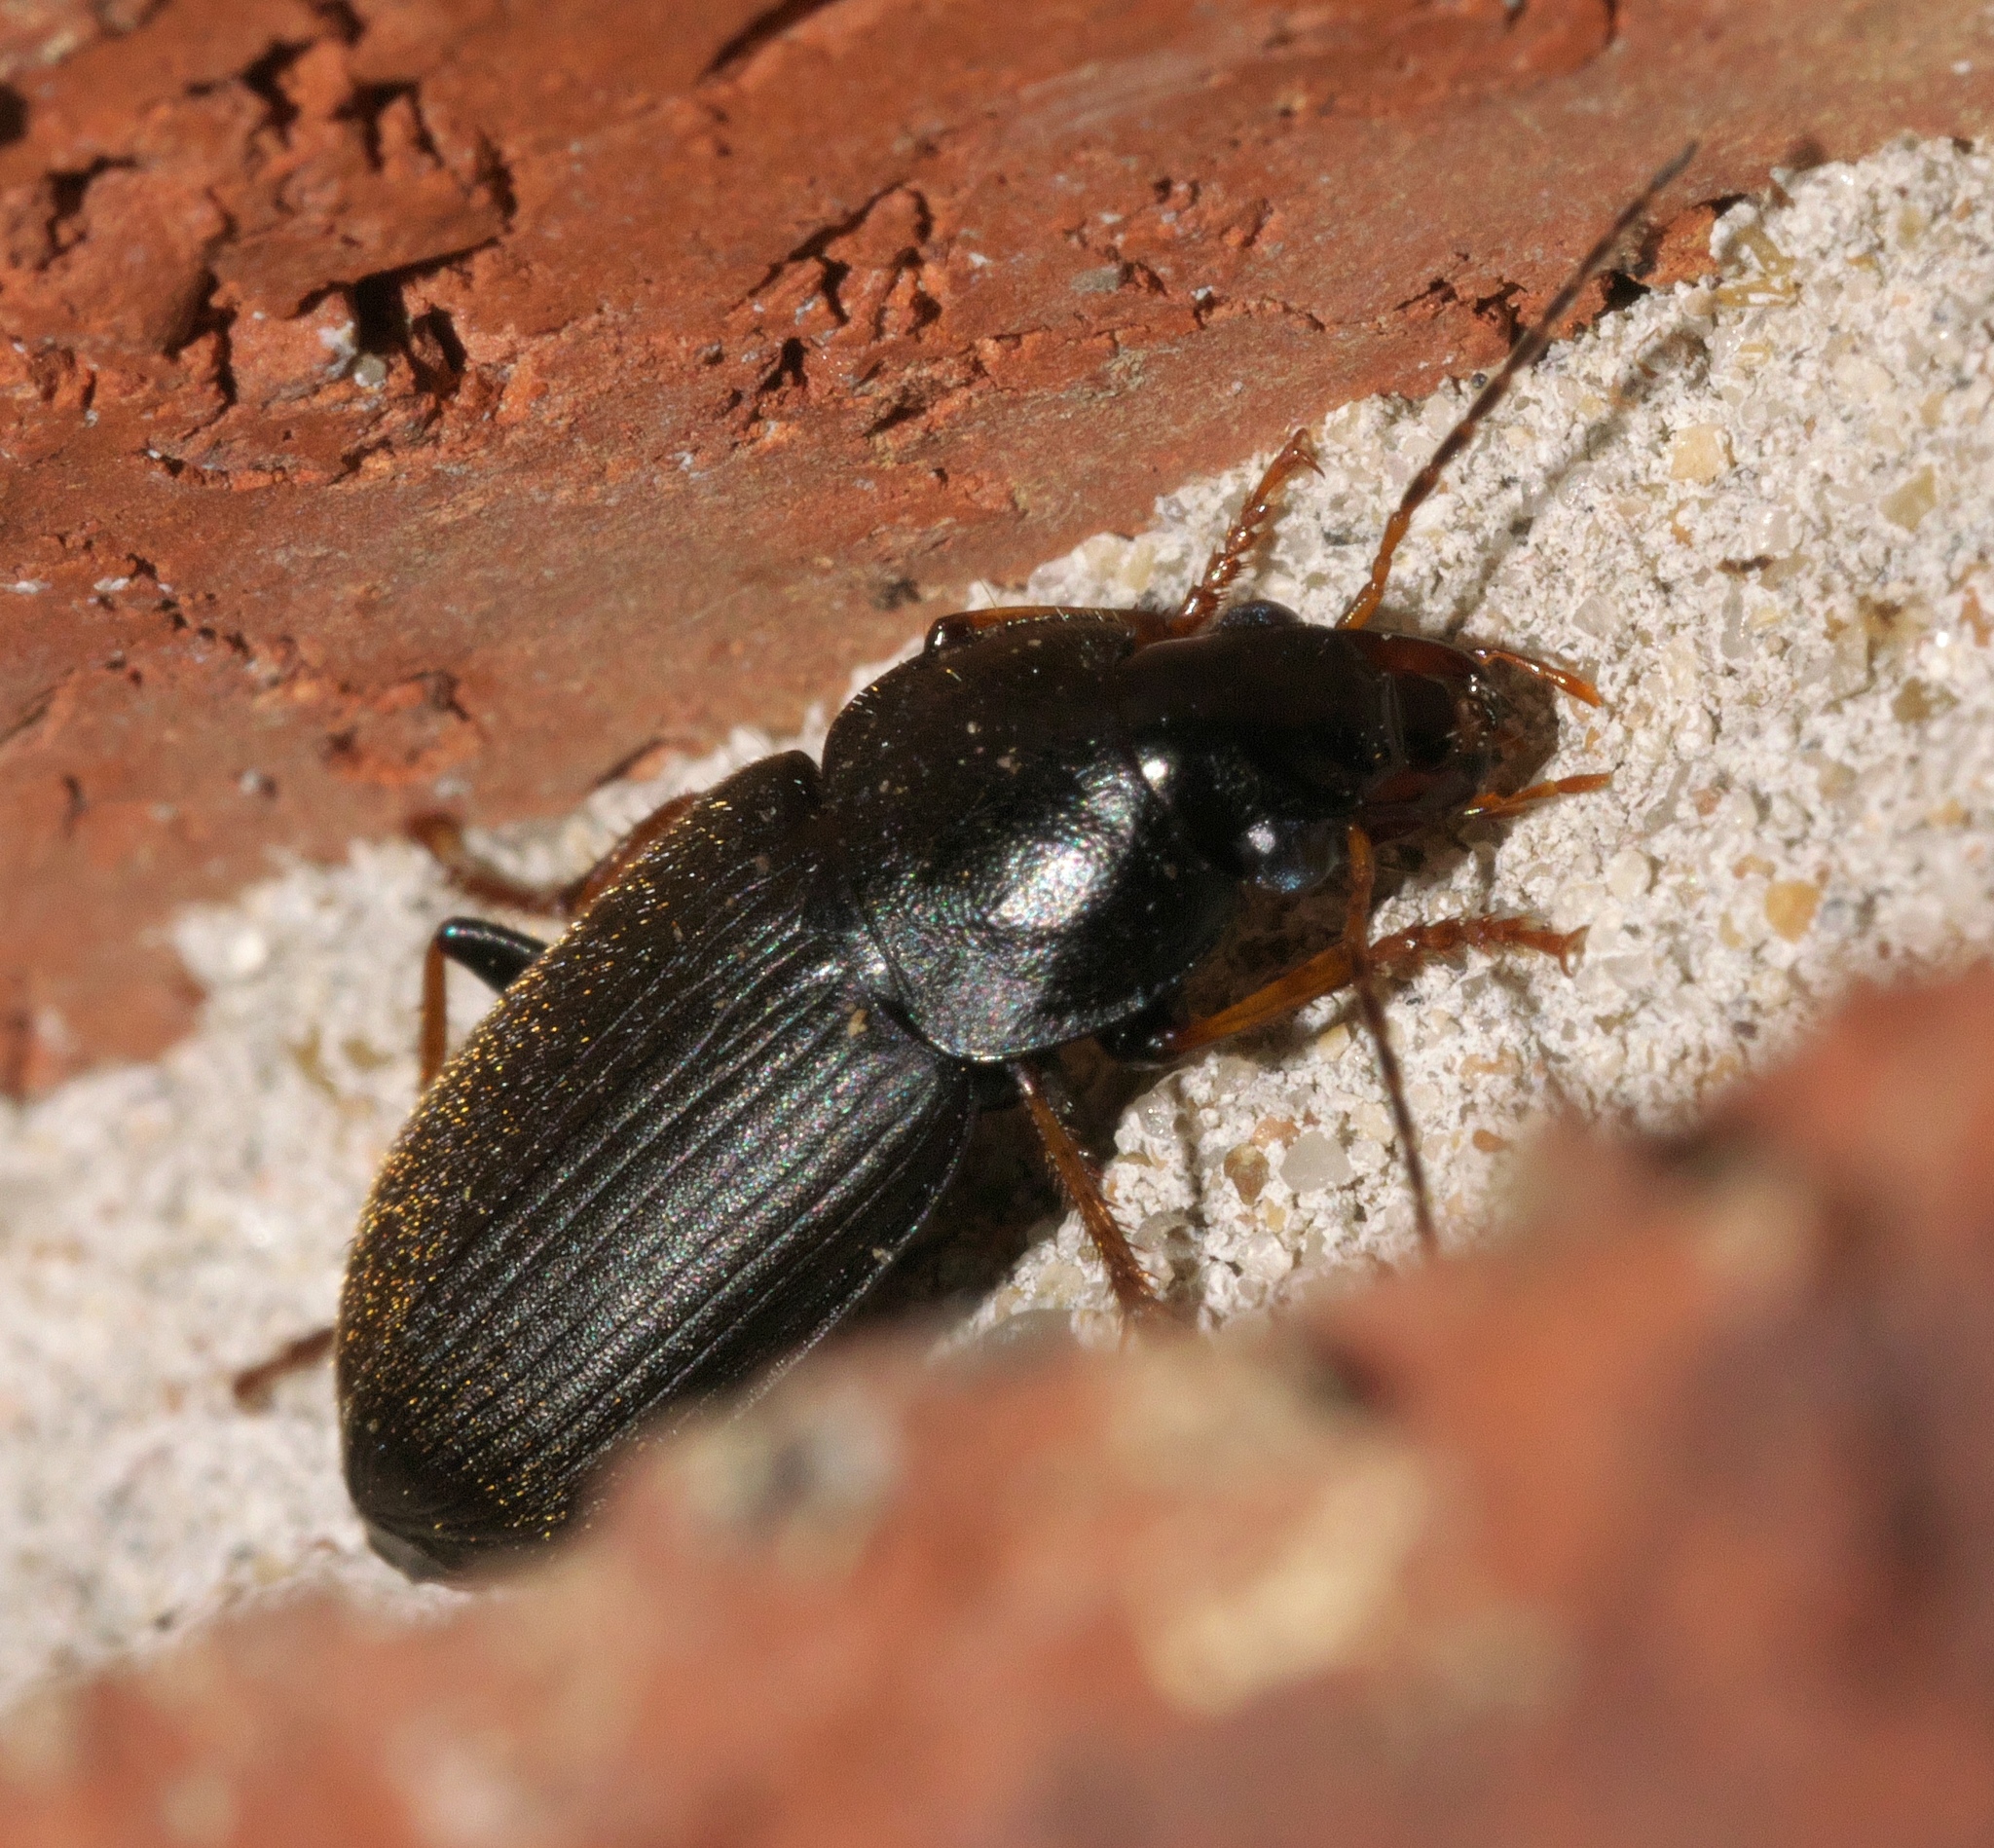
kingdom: Animalia
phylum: Arthropoda
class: Insecta
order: Coleoptera
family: Carabidae
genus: Amphasia
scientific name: Amphasia sericea
